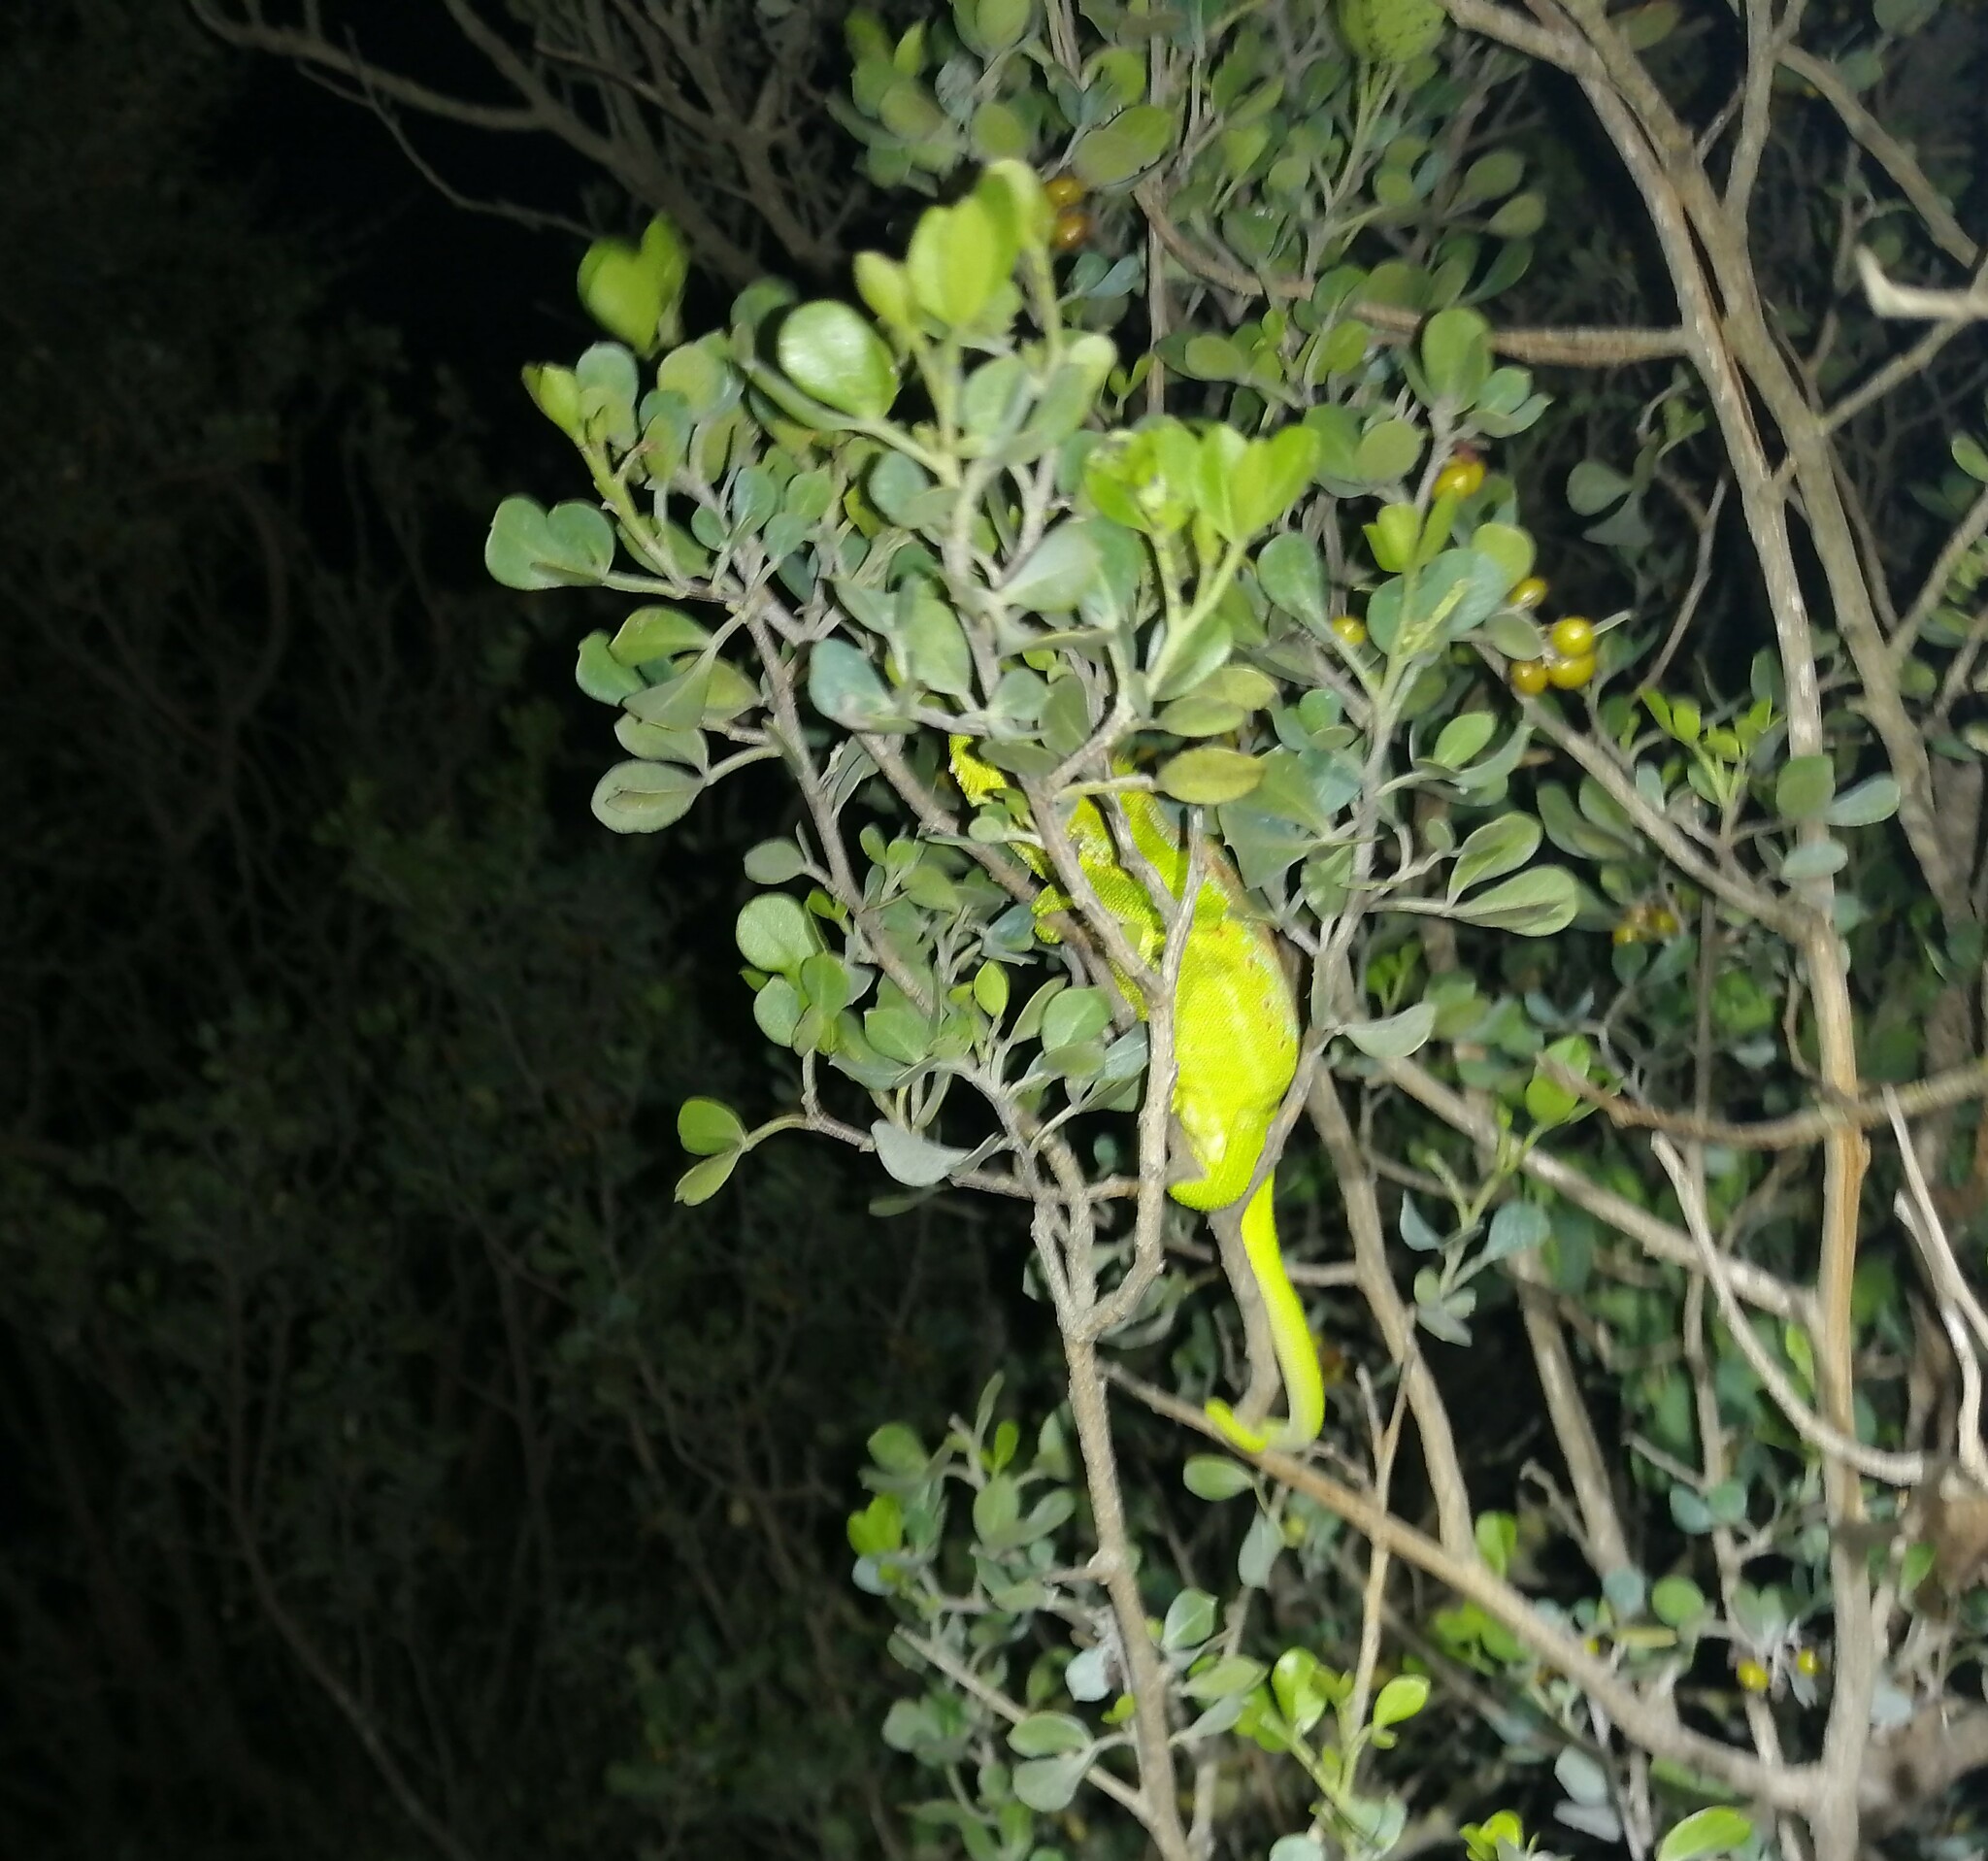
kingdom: Animalia
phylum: Chordata
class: Squamata
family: Chamaeleonidae
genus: Bradypodion
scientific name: Bradypodion pumilum
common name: Cape dwarf chameleon
